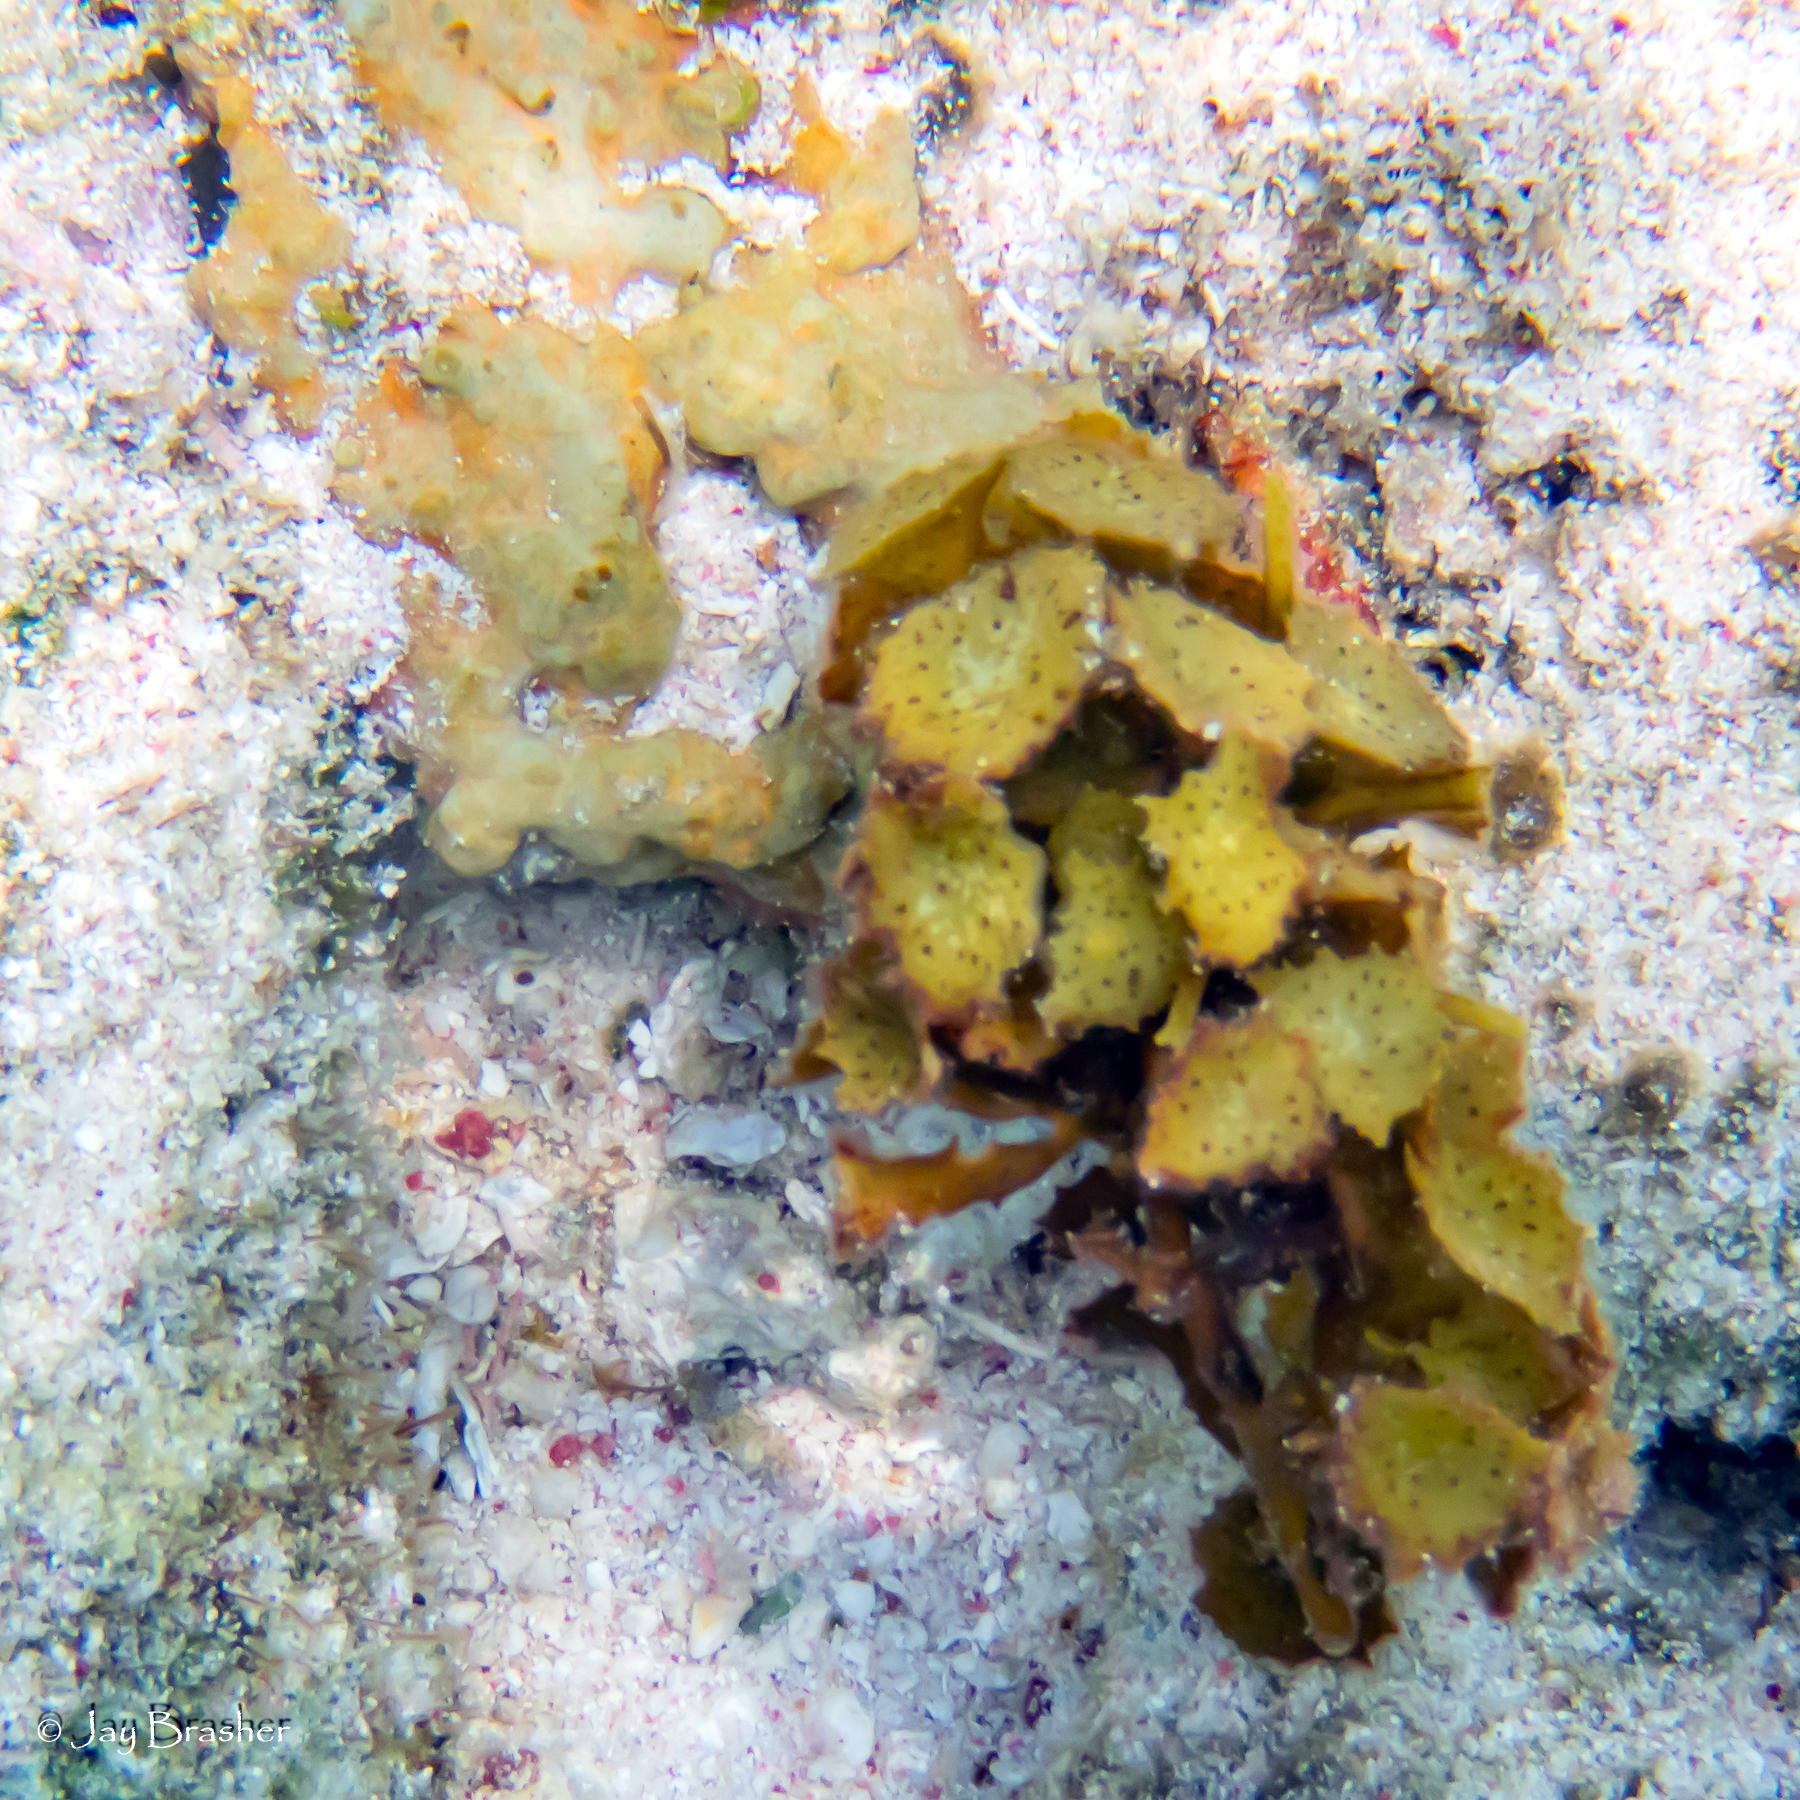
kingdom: Chromista
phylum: Ochrophyta
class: Phaeophyceae
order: Fucales
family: Sargassaceae
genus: Turbinaria
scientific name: Turbinaria turbinata
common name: Blistered saucer leaf algae
